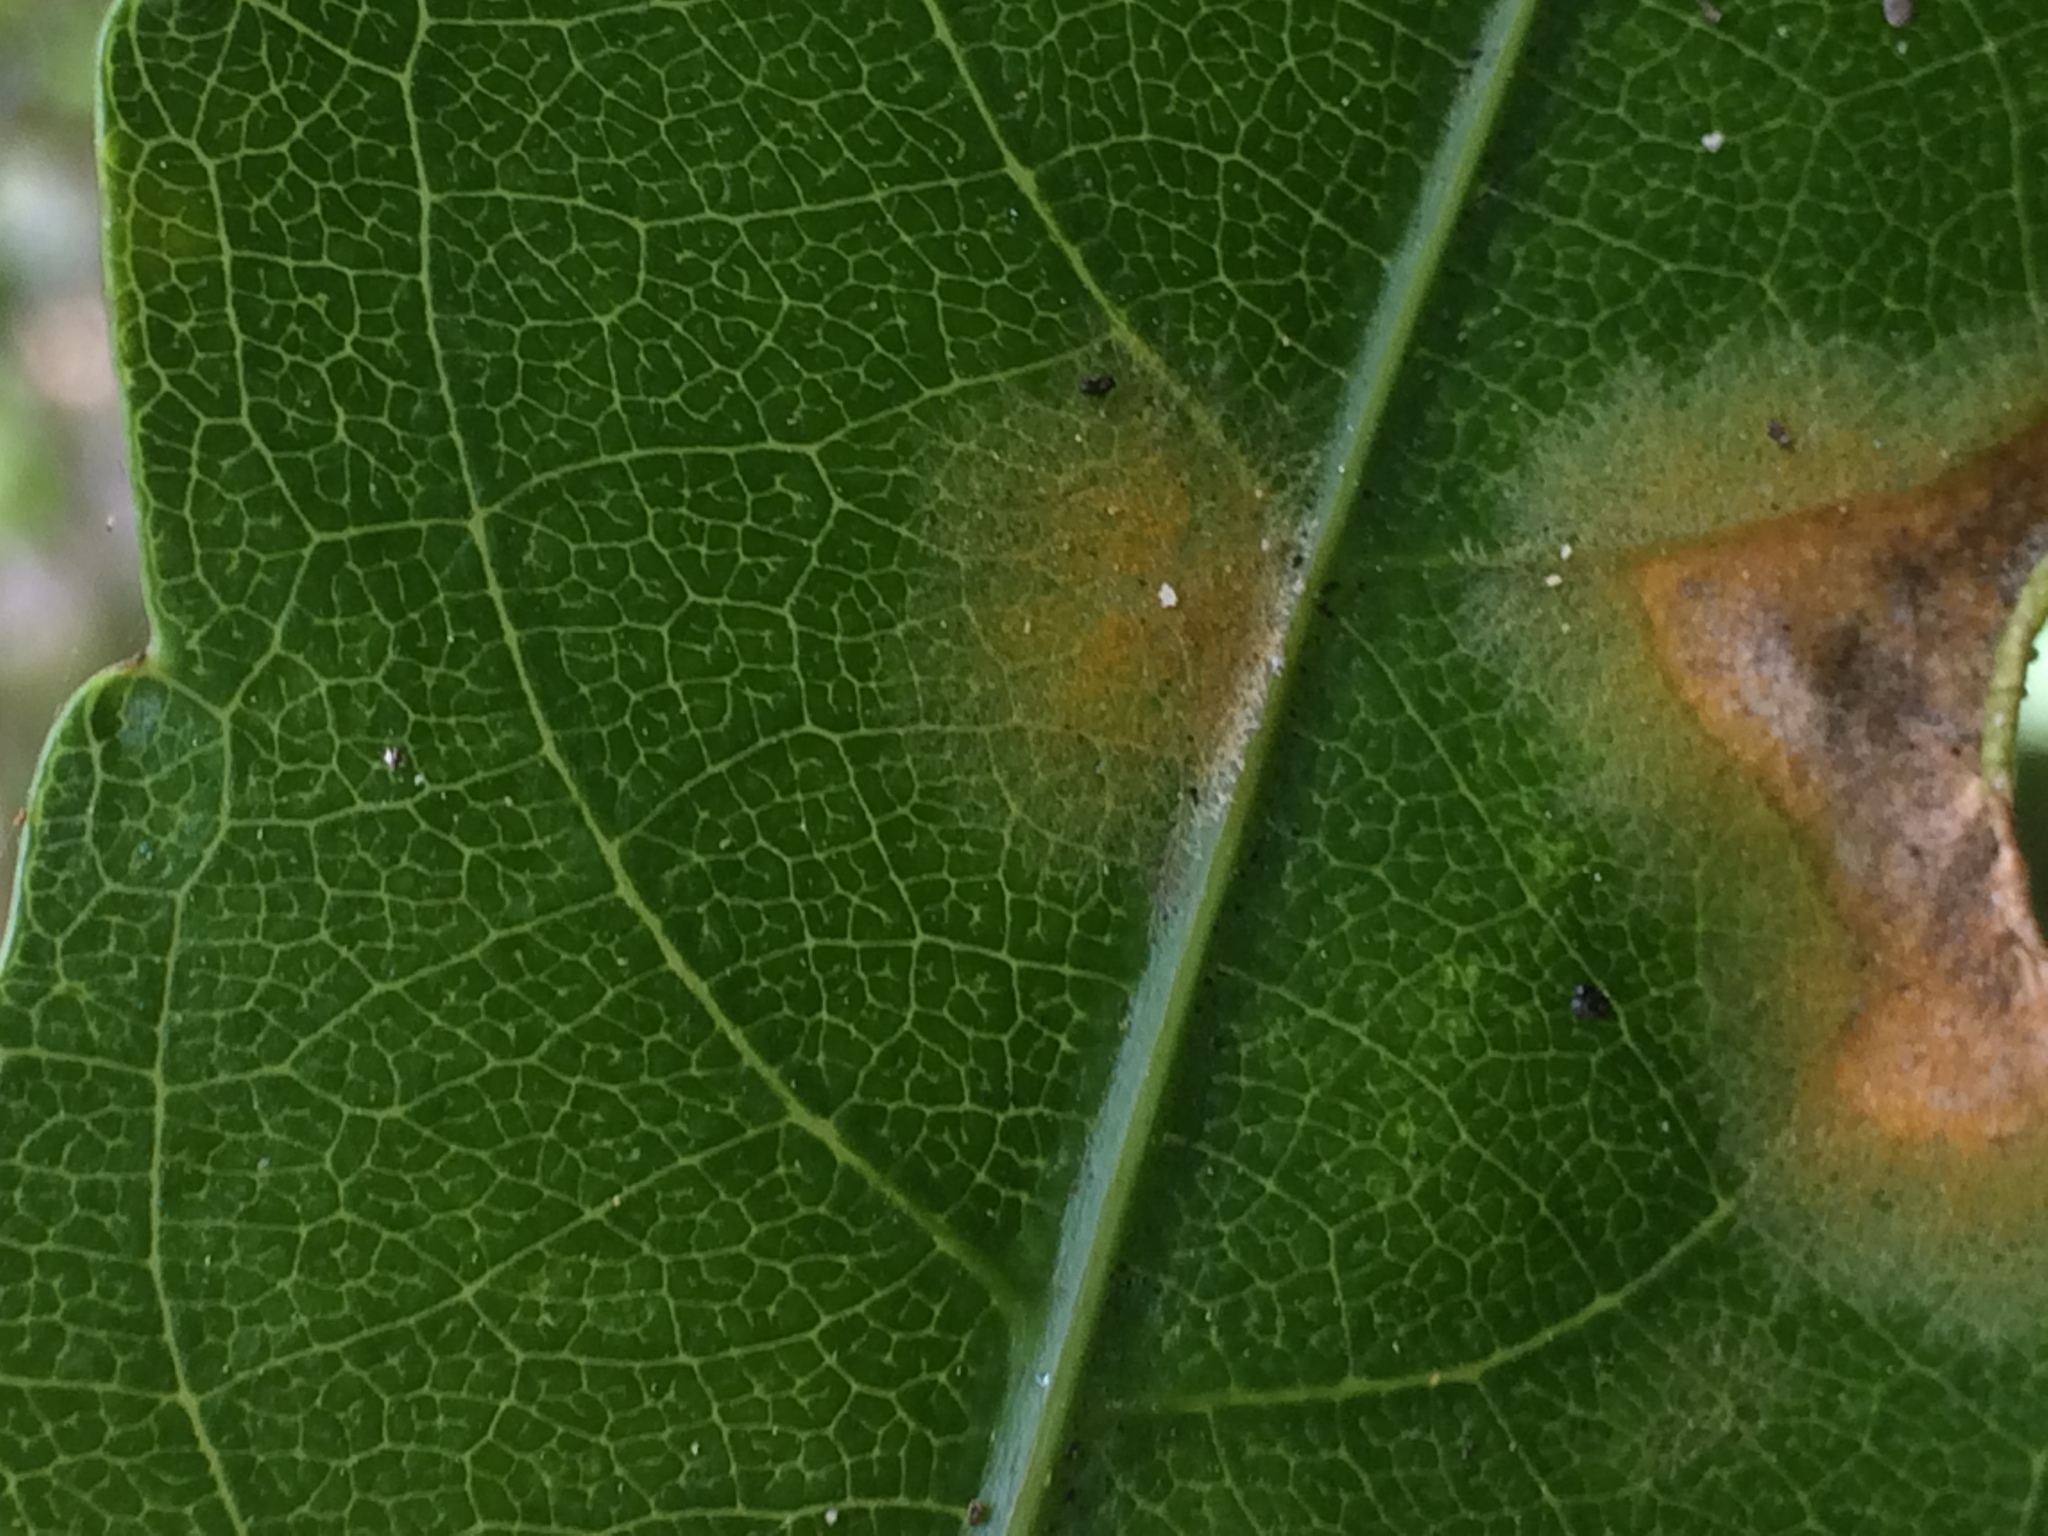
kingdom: Plantae
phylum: Chlorophyta
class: Ulvophyceae
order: Trentepohliales
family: Trentepohliaceae
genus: Cephaleuros
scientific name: Cephaleuros
